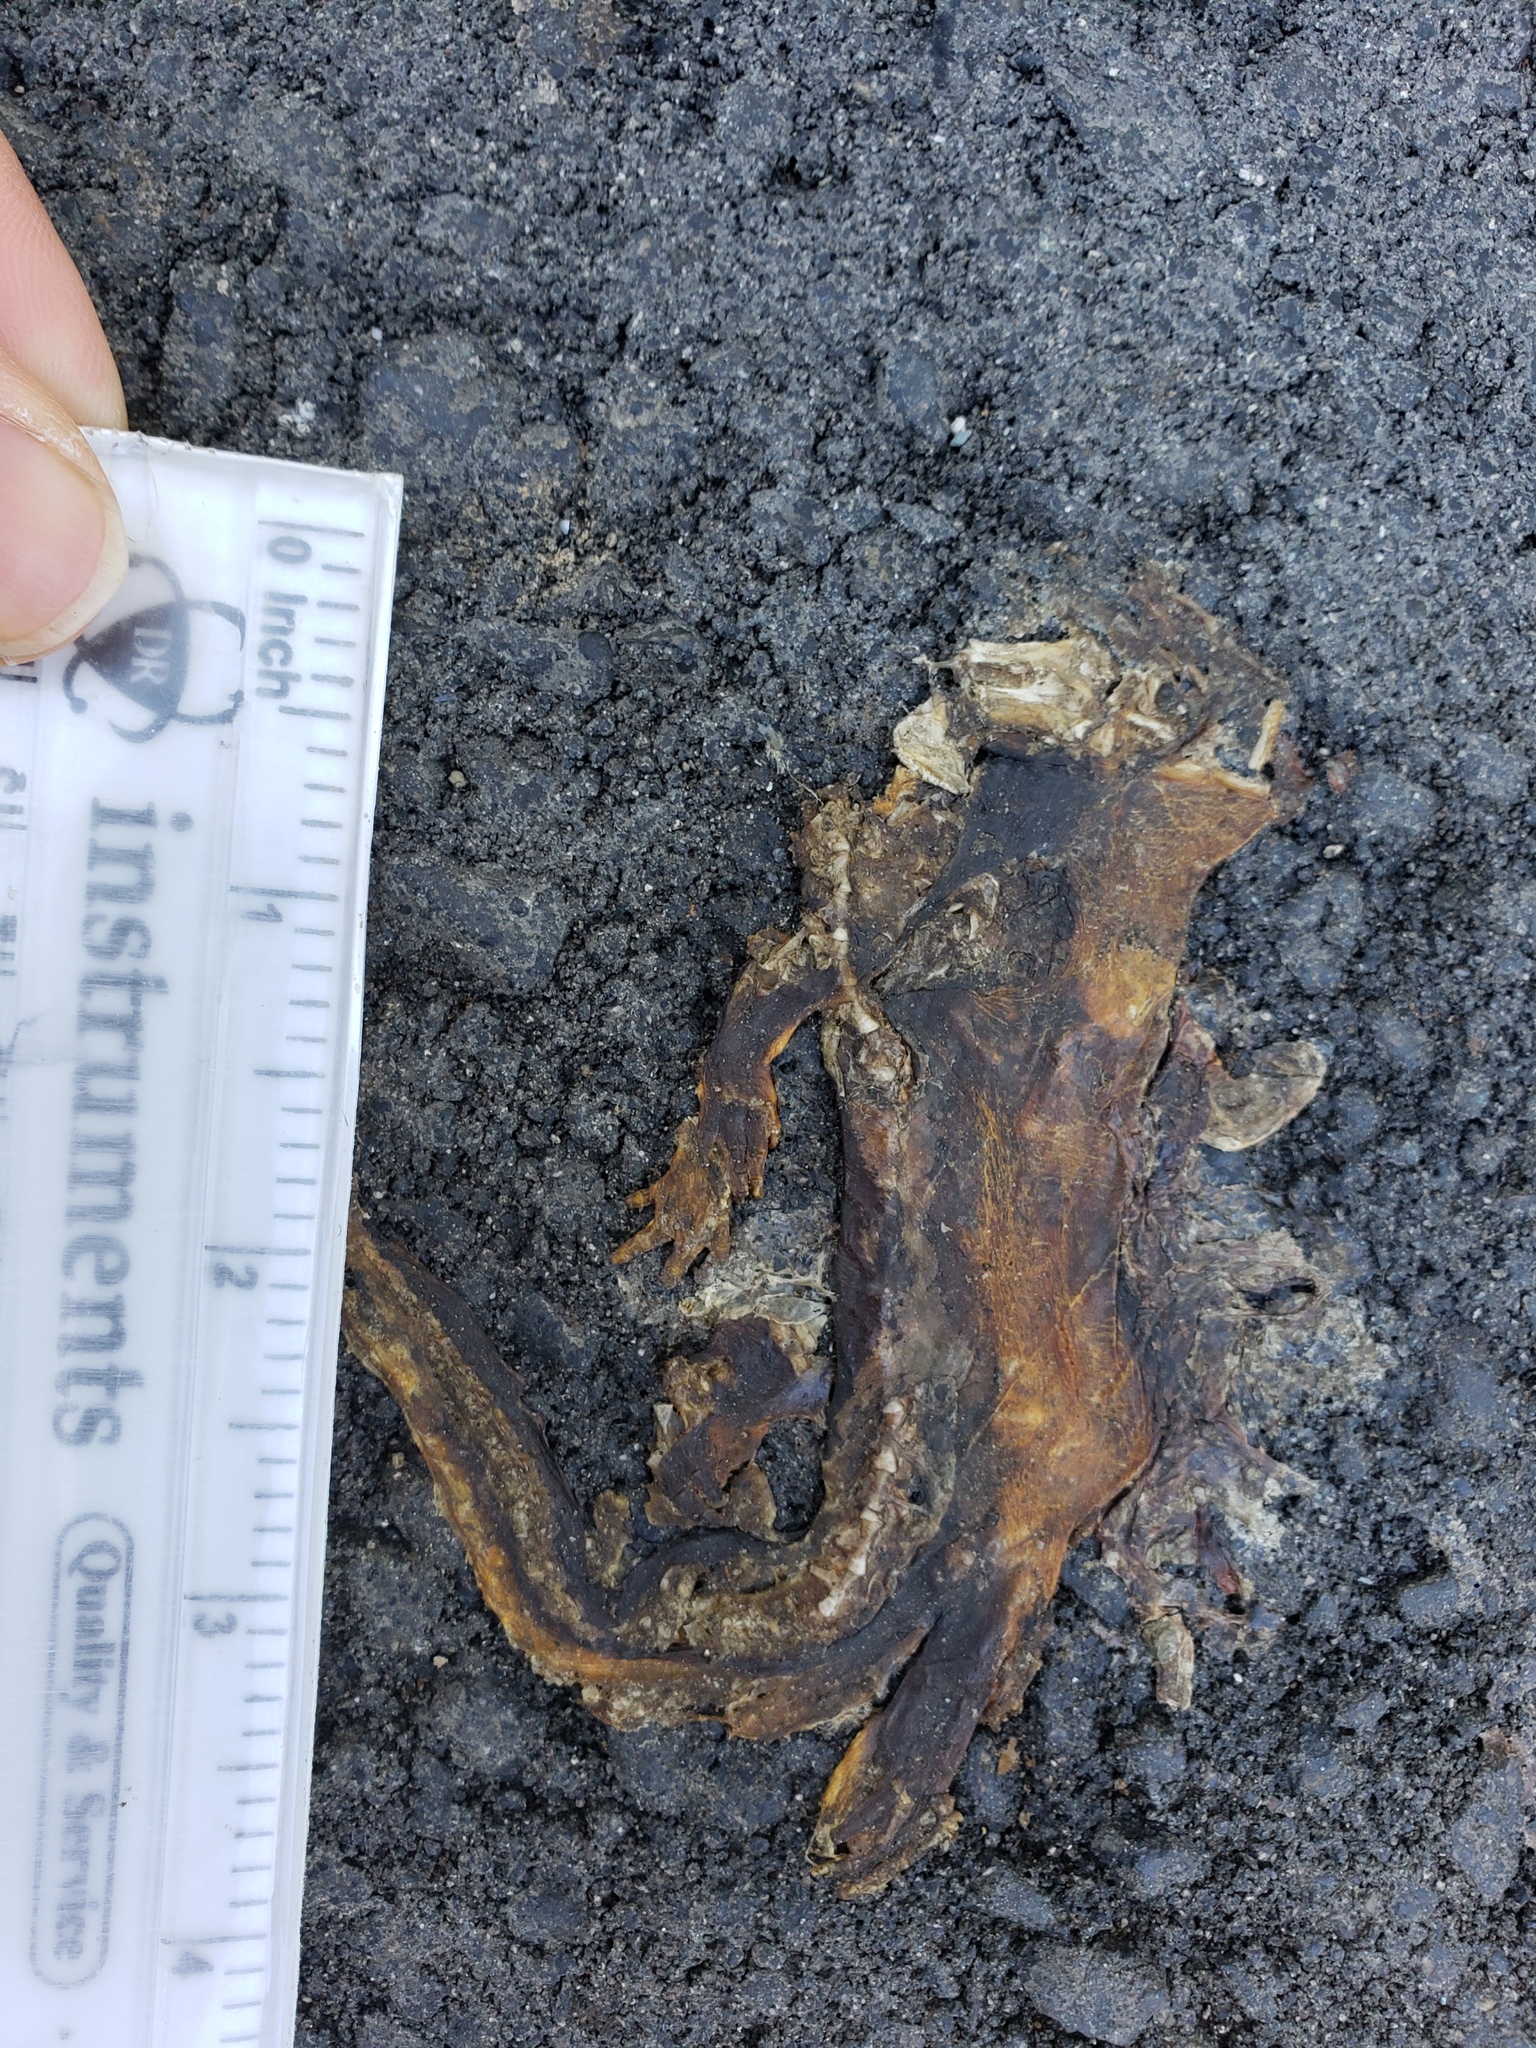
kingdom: Animalia
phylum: Chordata
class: Amphibia
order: Caudata
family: Salamandridae
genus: Taricha
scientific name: Taricha
